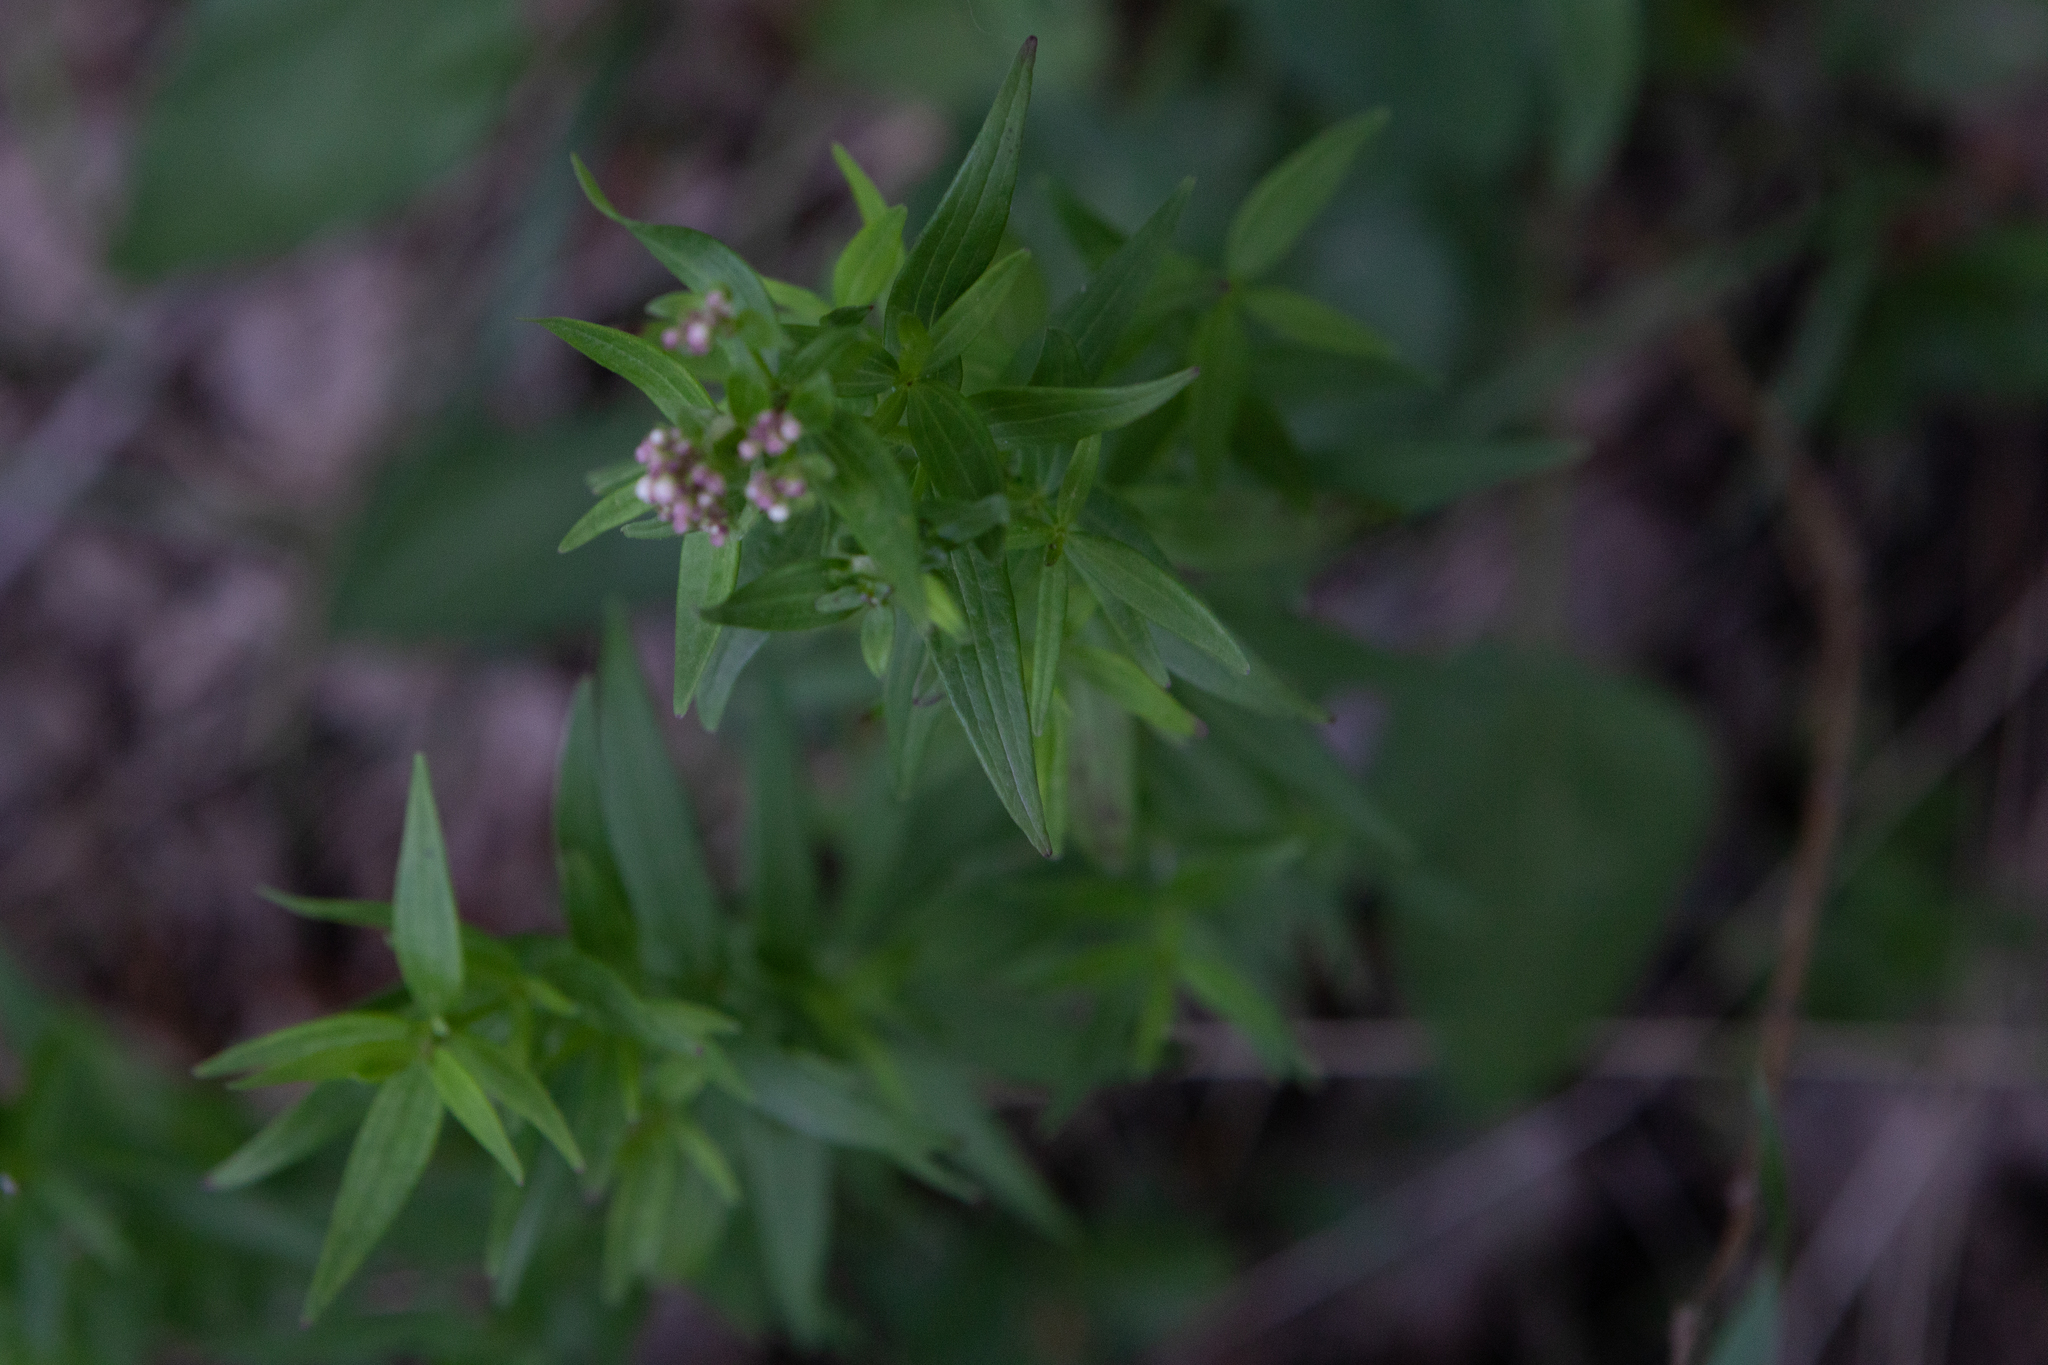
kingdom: Plantae
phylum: Tracheophyta
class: Magnoliopsida
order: Gentianales
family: Rubiaceae
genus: Galium
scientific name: Galium boreale
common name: Northern bedstraw
